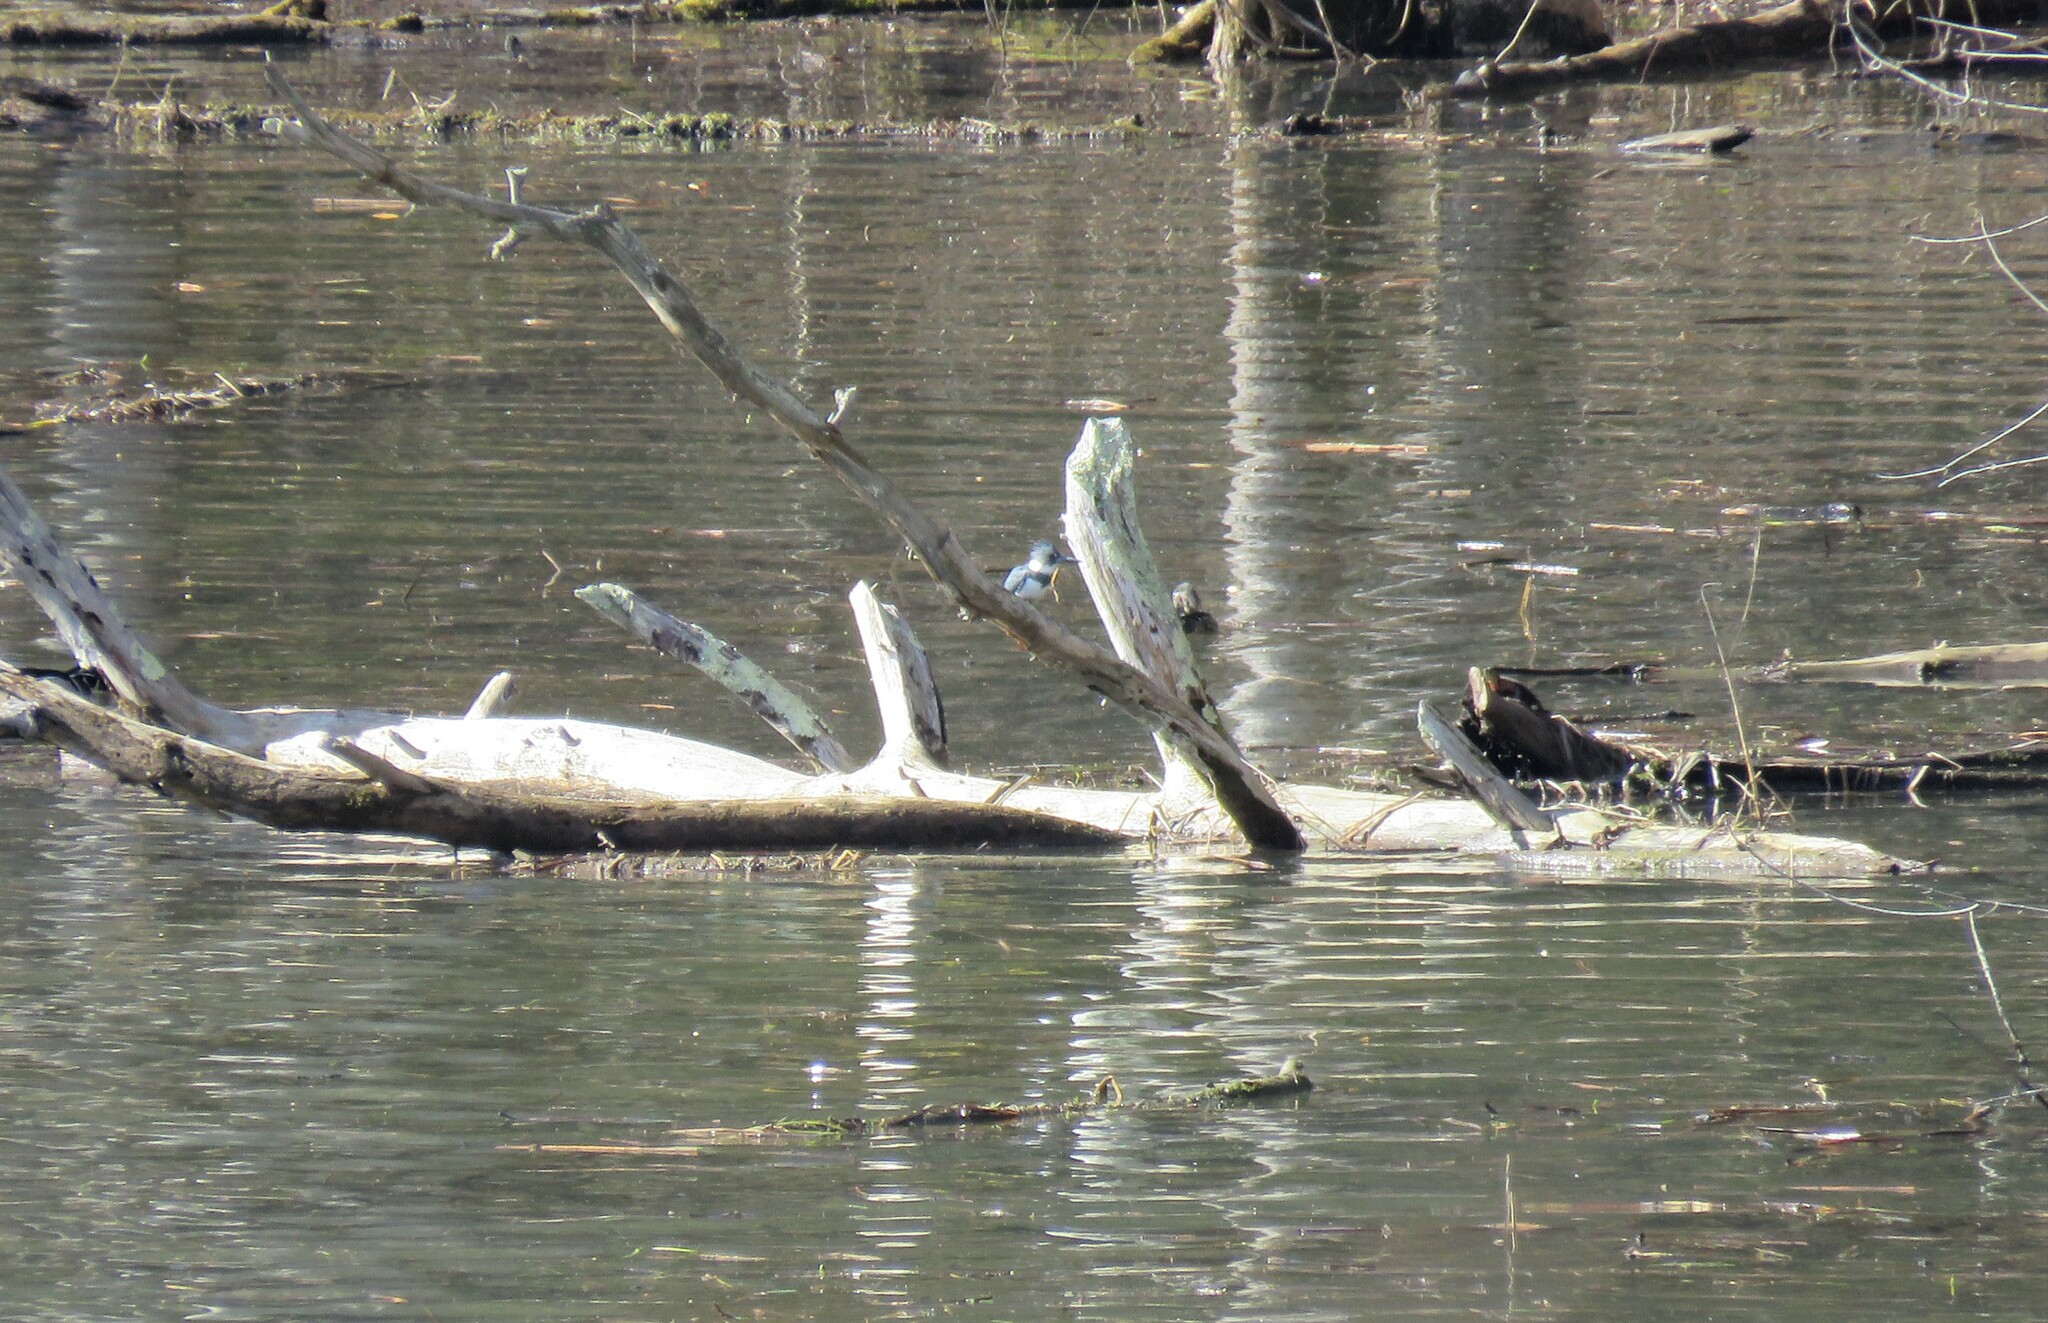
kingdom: Animalia
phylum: Chordata
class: Aves
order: Coraciiformes
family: Alcedinidae
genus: Megaceryle
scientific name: Megaceryle alcyon
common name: Belted kingfisher
